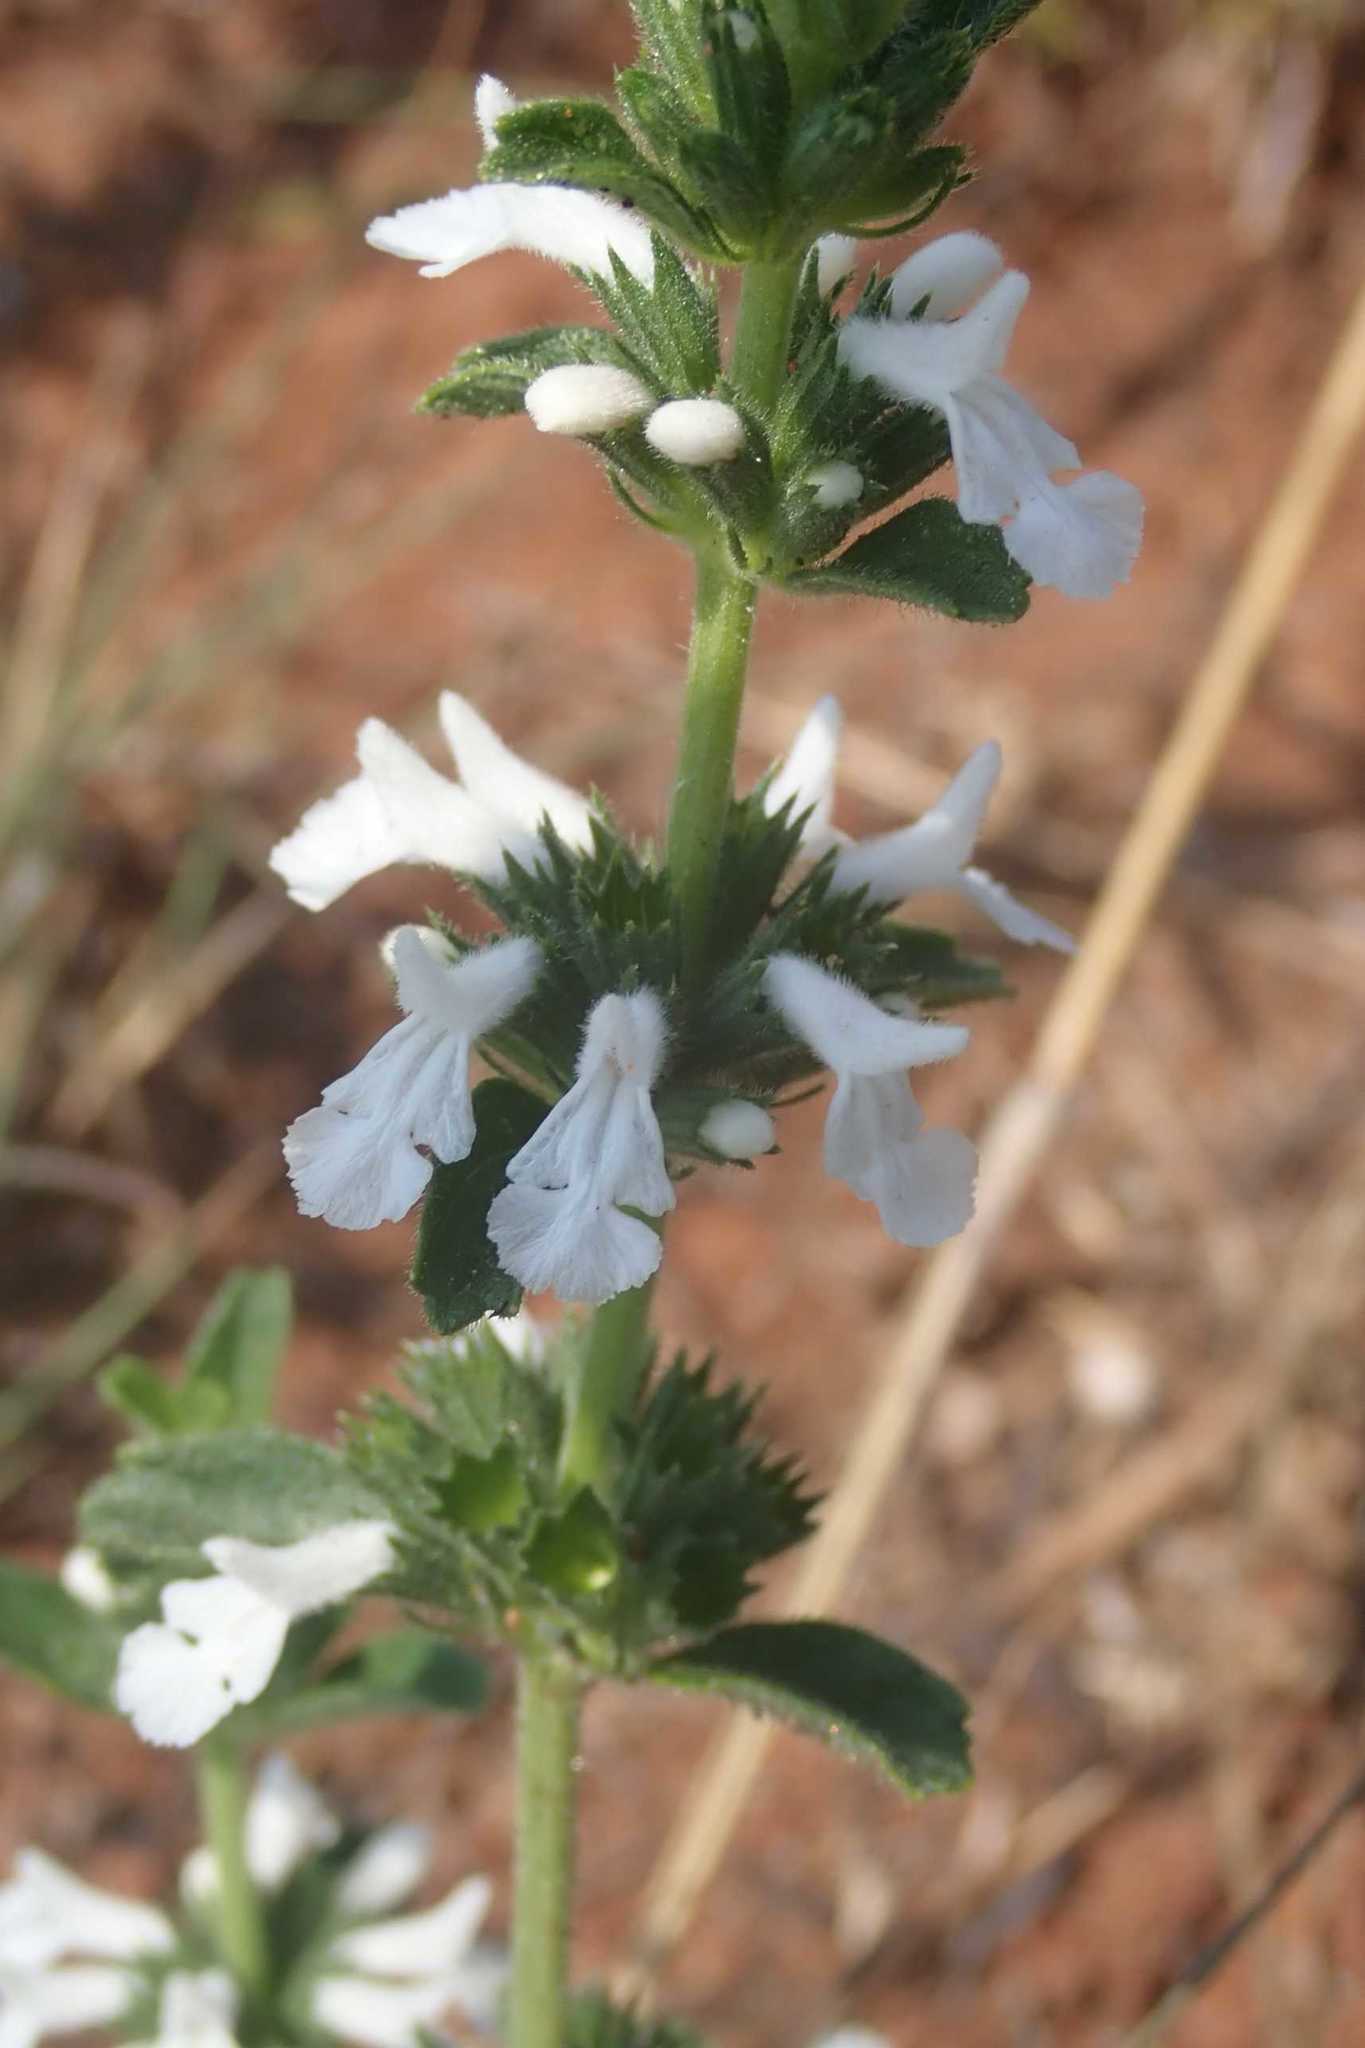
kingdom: Plantae
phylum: Tracheophyta
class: Magnoliopsida
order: Lamiales
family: Lamiaceae
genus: Acrotome
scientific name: Acrotome hispida
